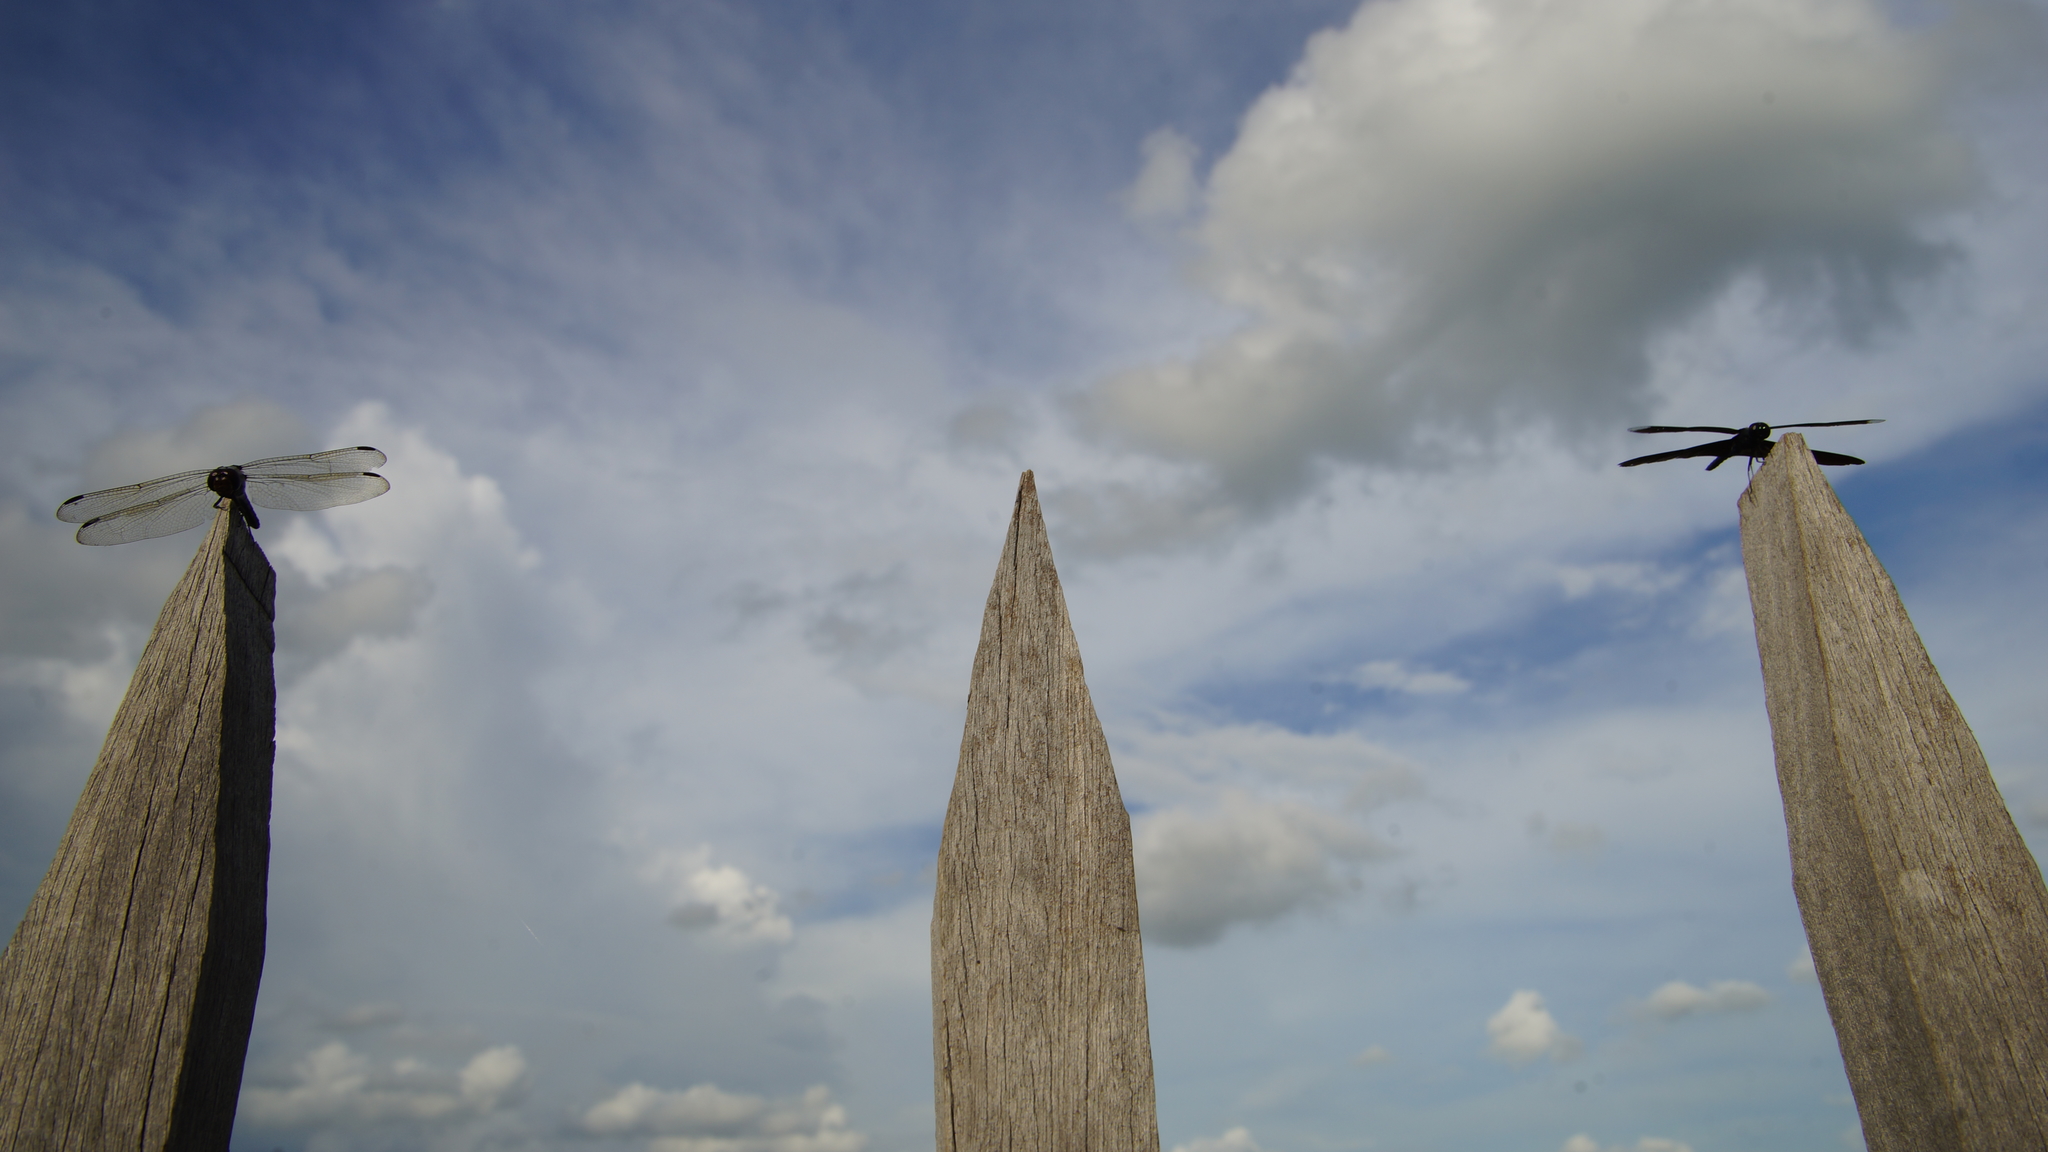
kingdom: Animalia
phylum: Arthropoda
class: Insecta
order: Odonata
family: Libellulidae
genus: Potamarcha
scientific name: Potamarcha congener
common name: Blue chaser
